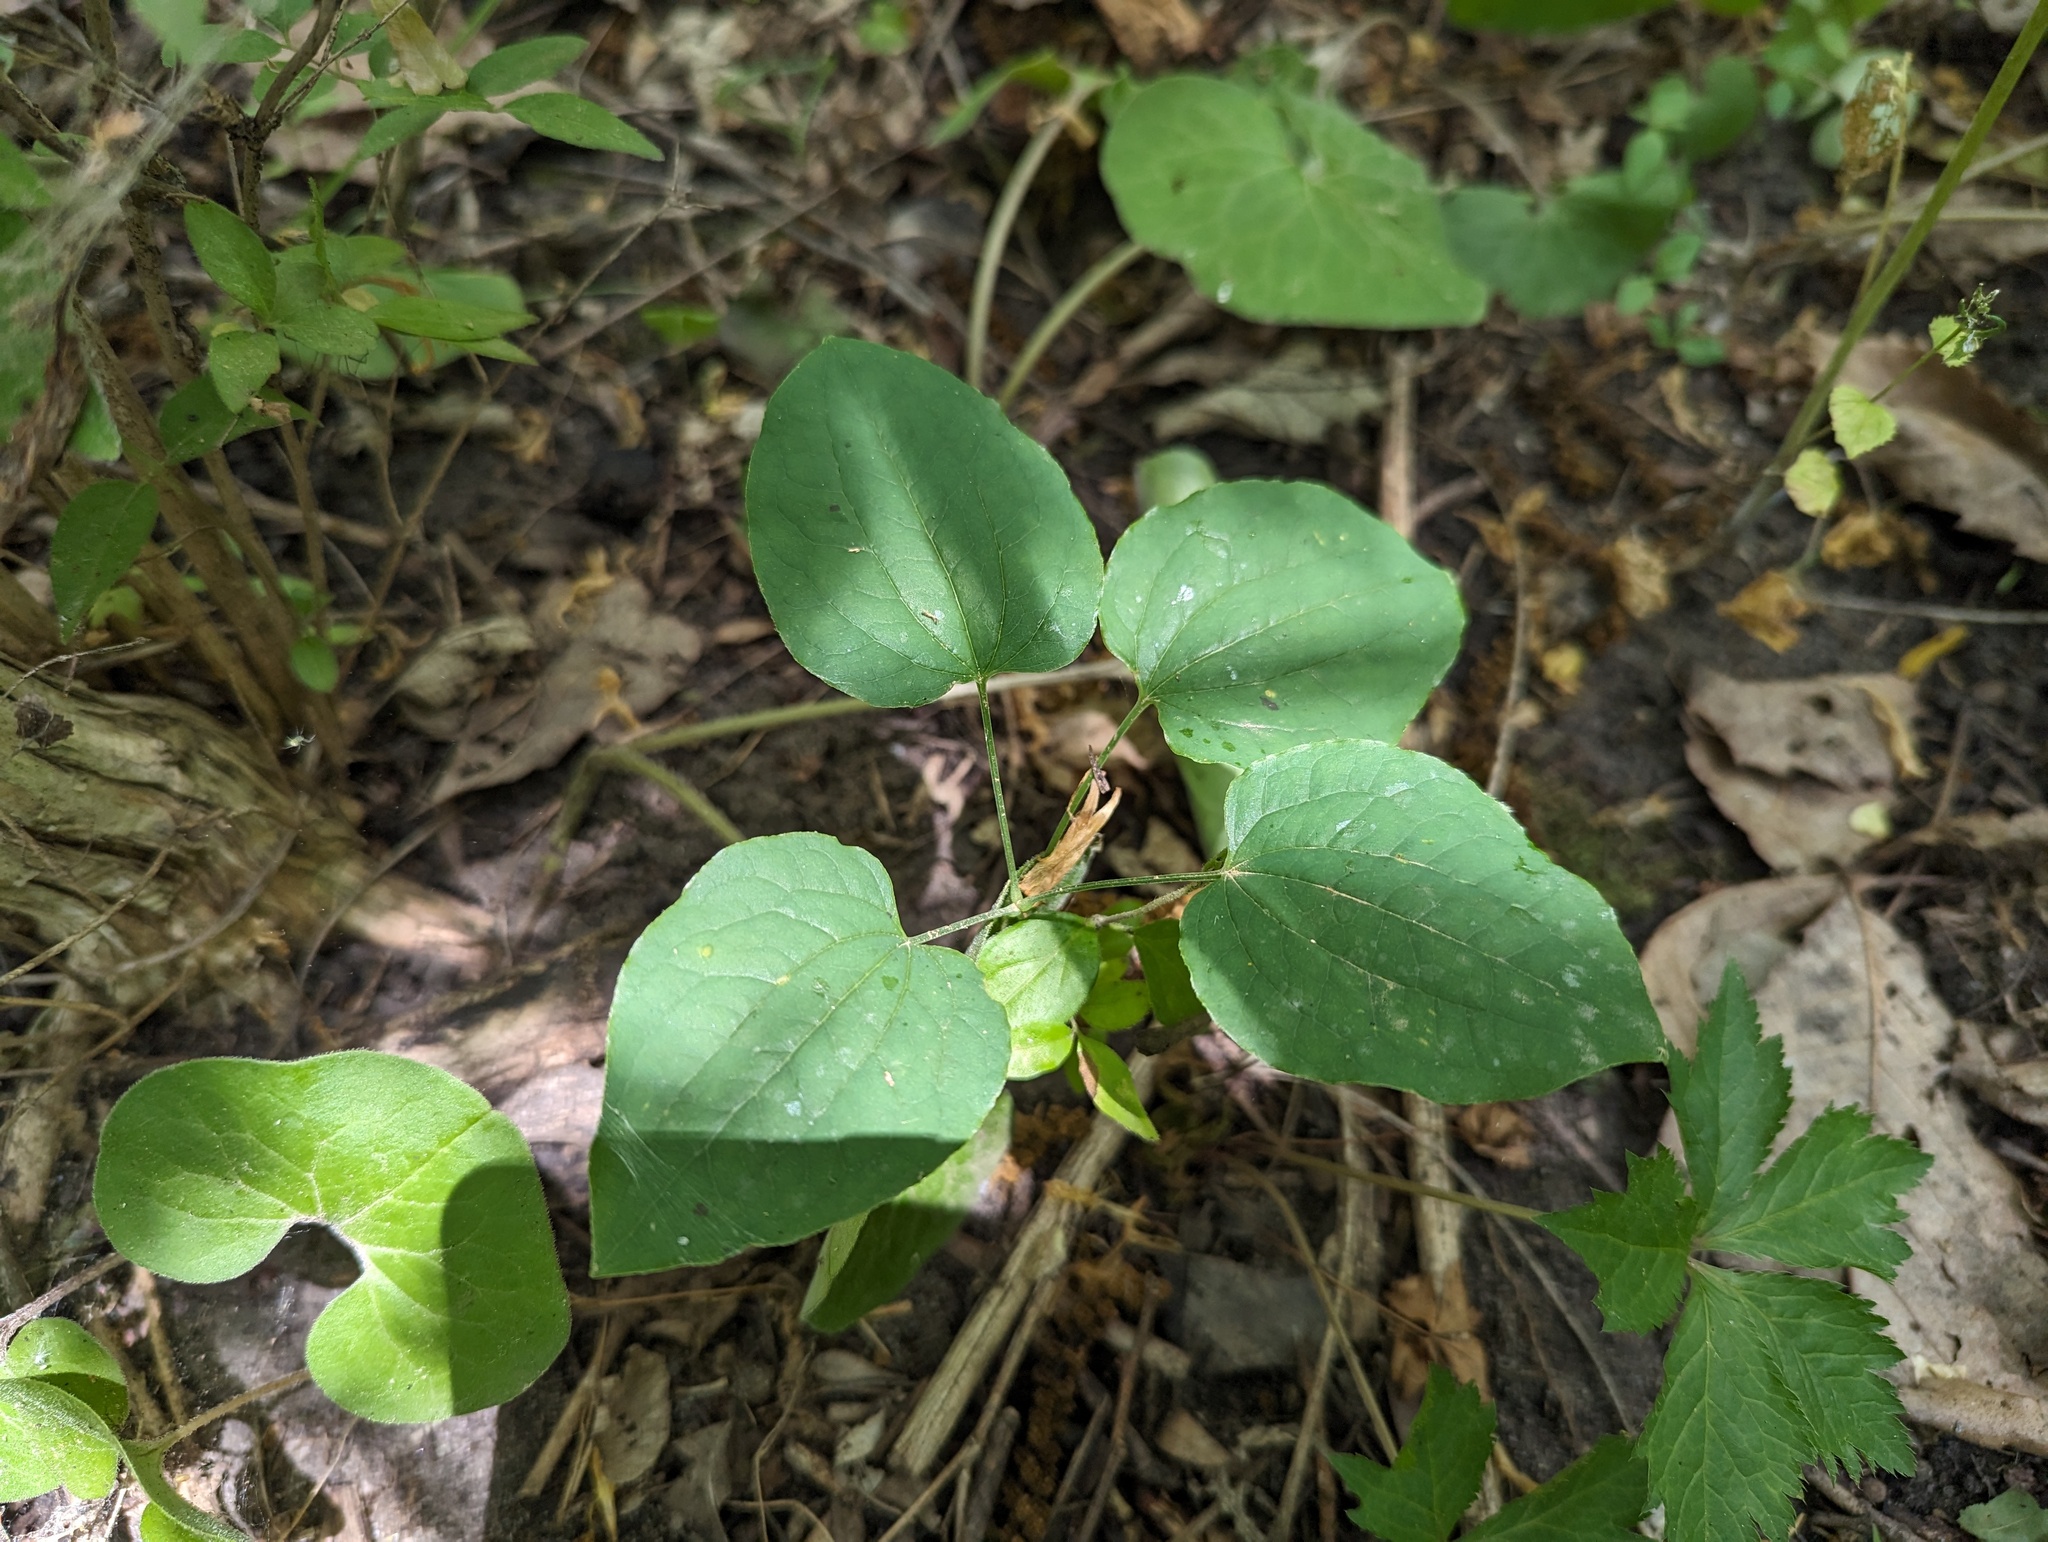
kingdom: Plantae
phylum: Tracheophyta
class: Liliopsida
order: Liliales
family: Smilacaceae
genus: Smilax
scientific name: Smilax ecirrhata
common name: Upright carrionflower
